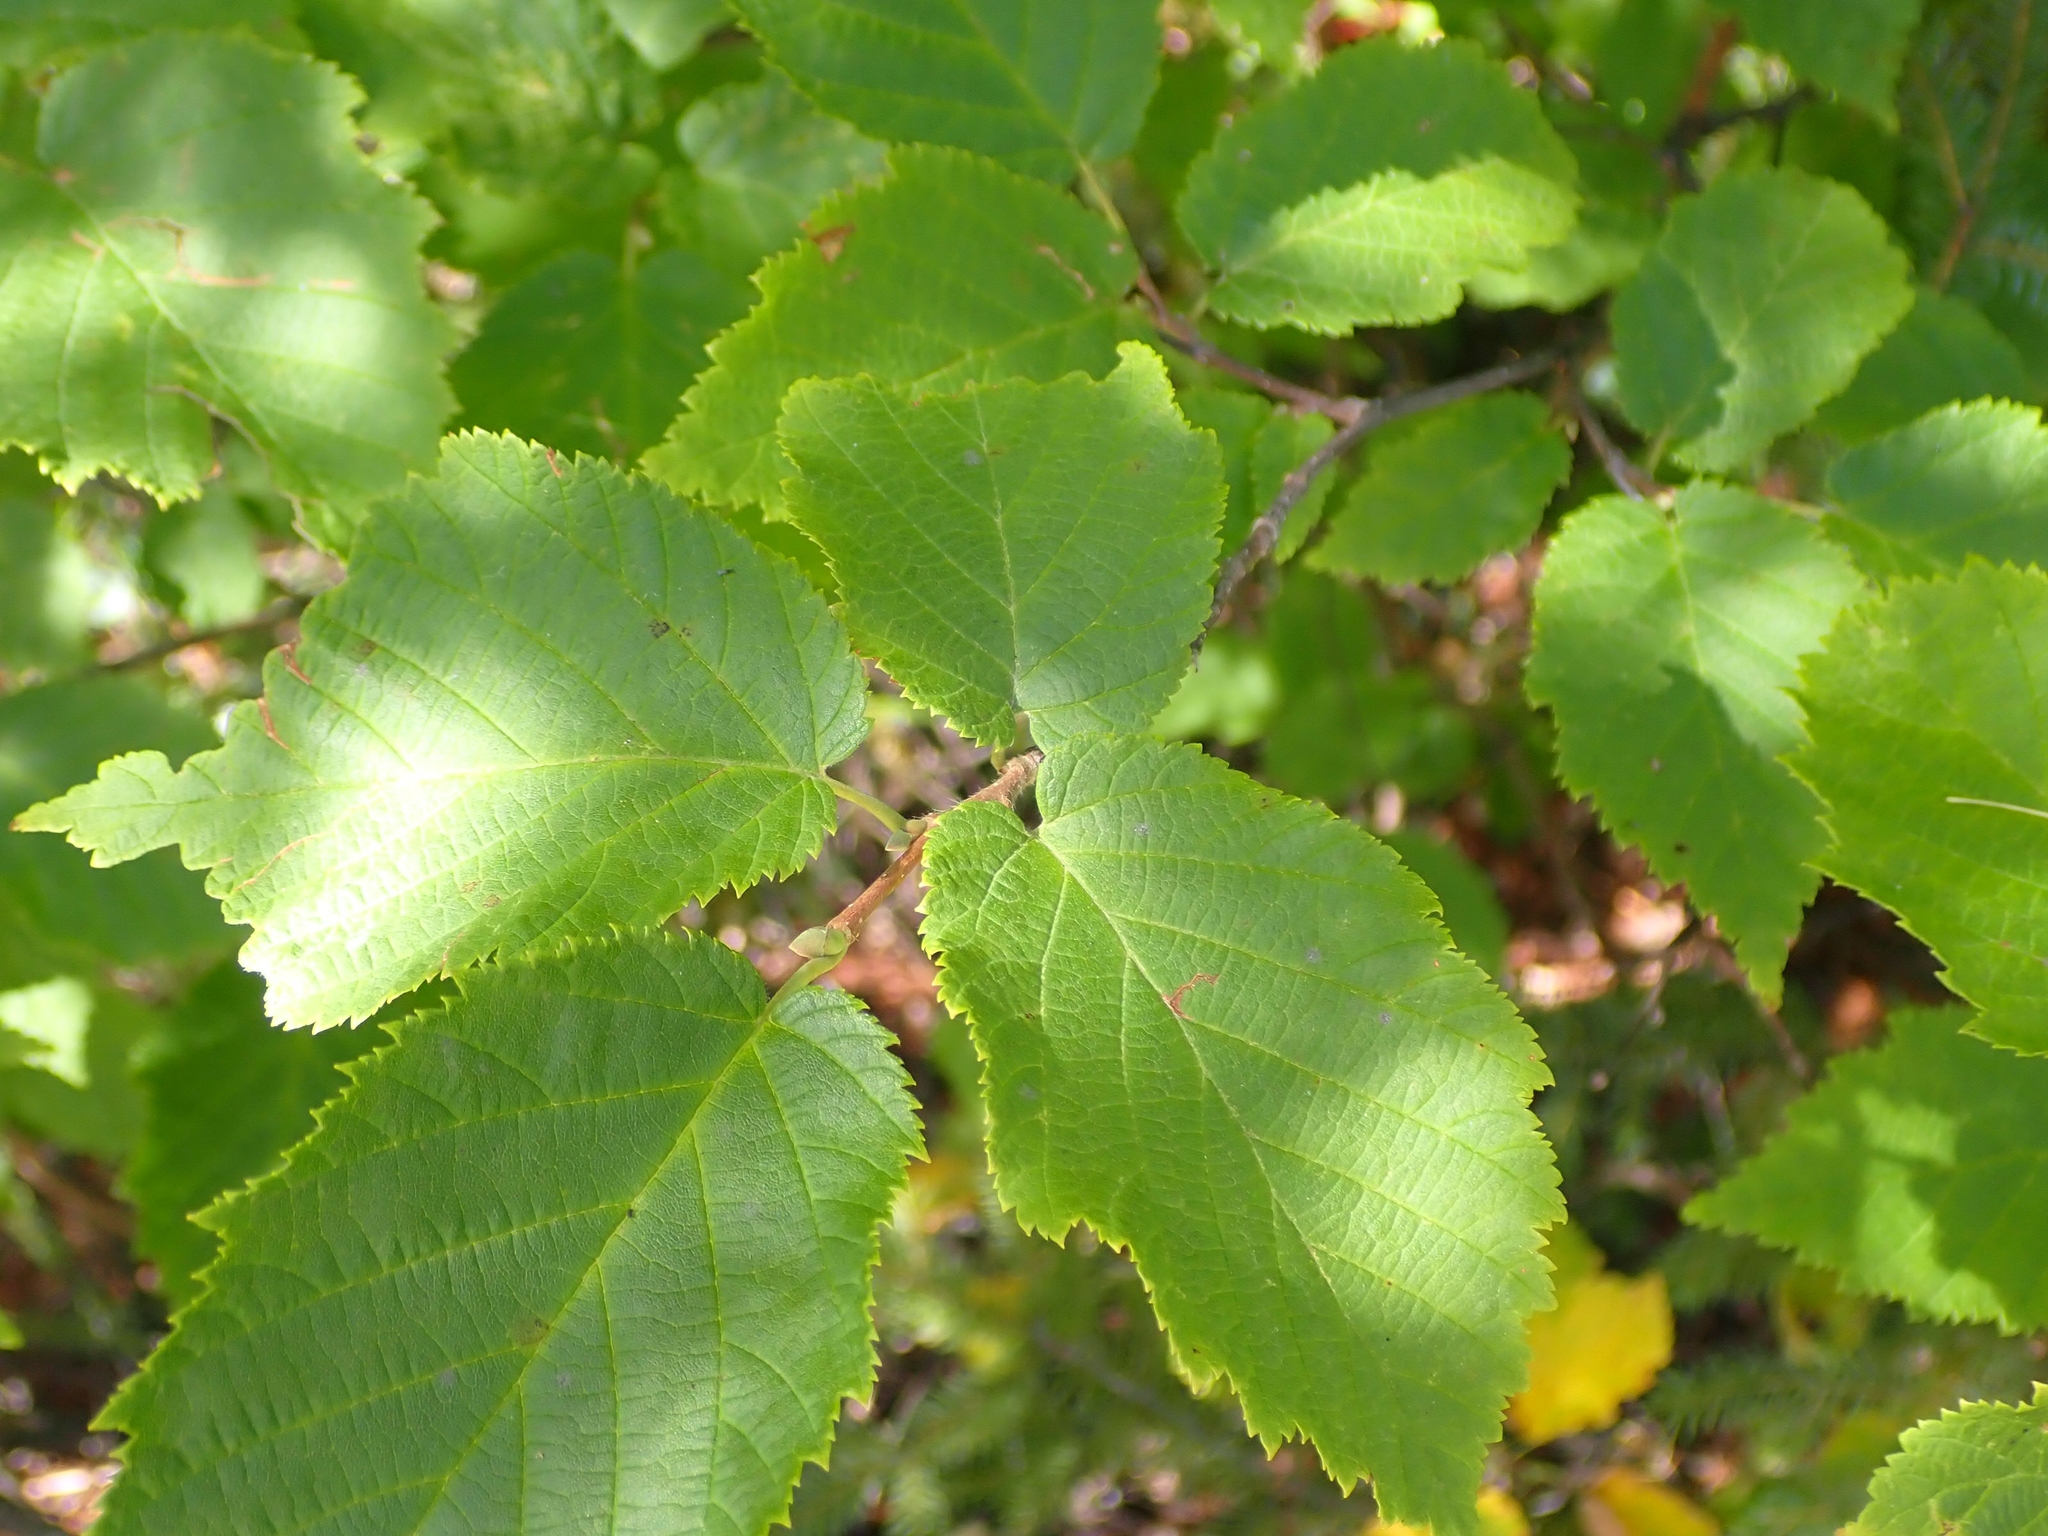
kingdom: Plantae
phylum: Tracheophyta
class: Magnoliopsida
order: Fagales
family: Betulaceae
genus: Corylus
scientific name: Corylus cornuta
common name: Beaked hazel
